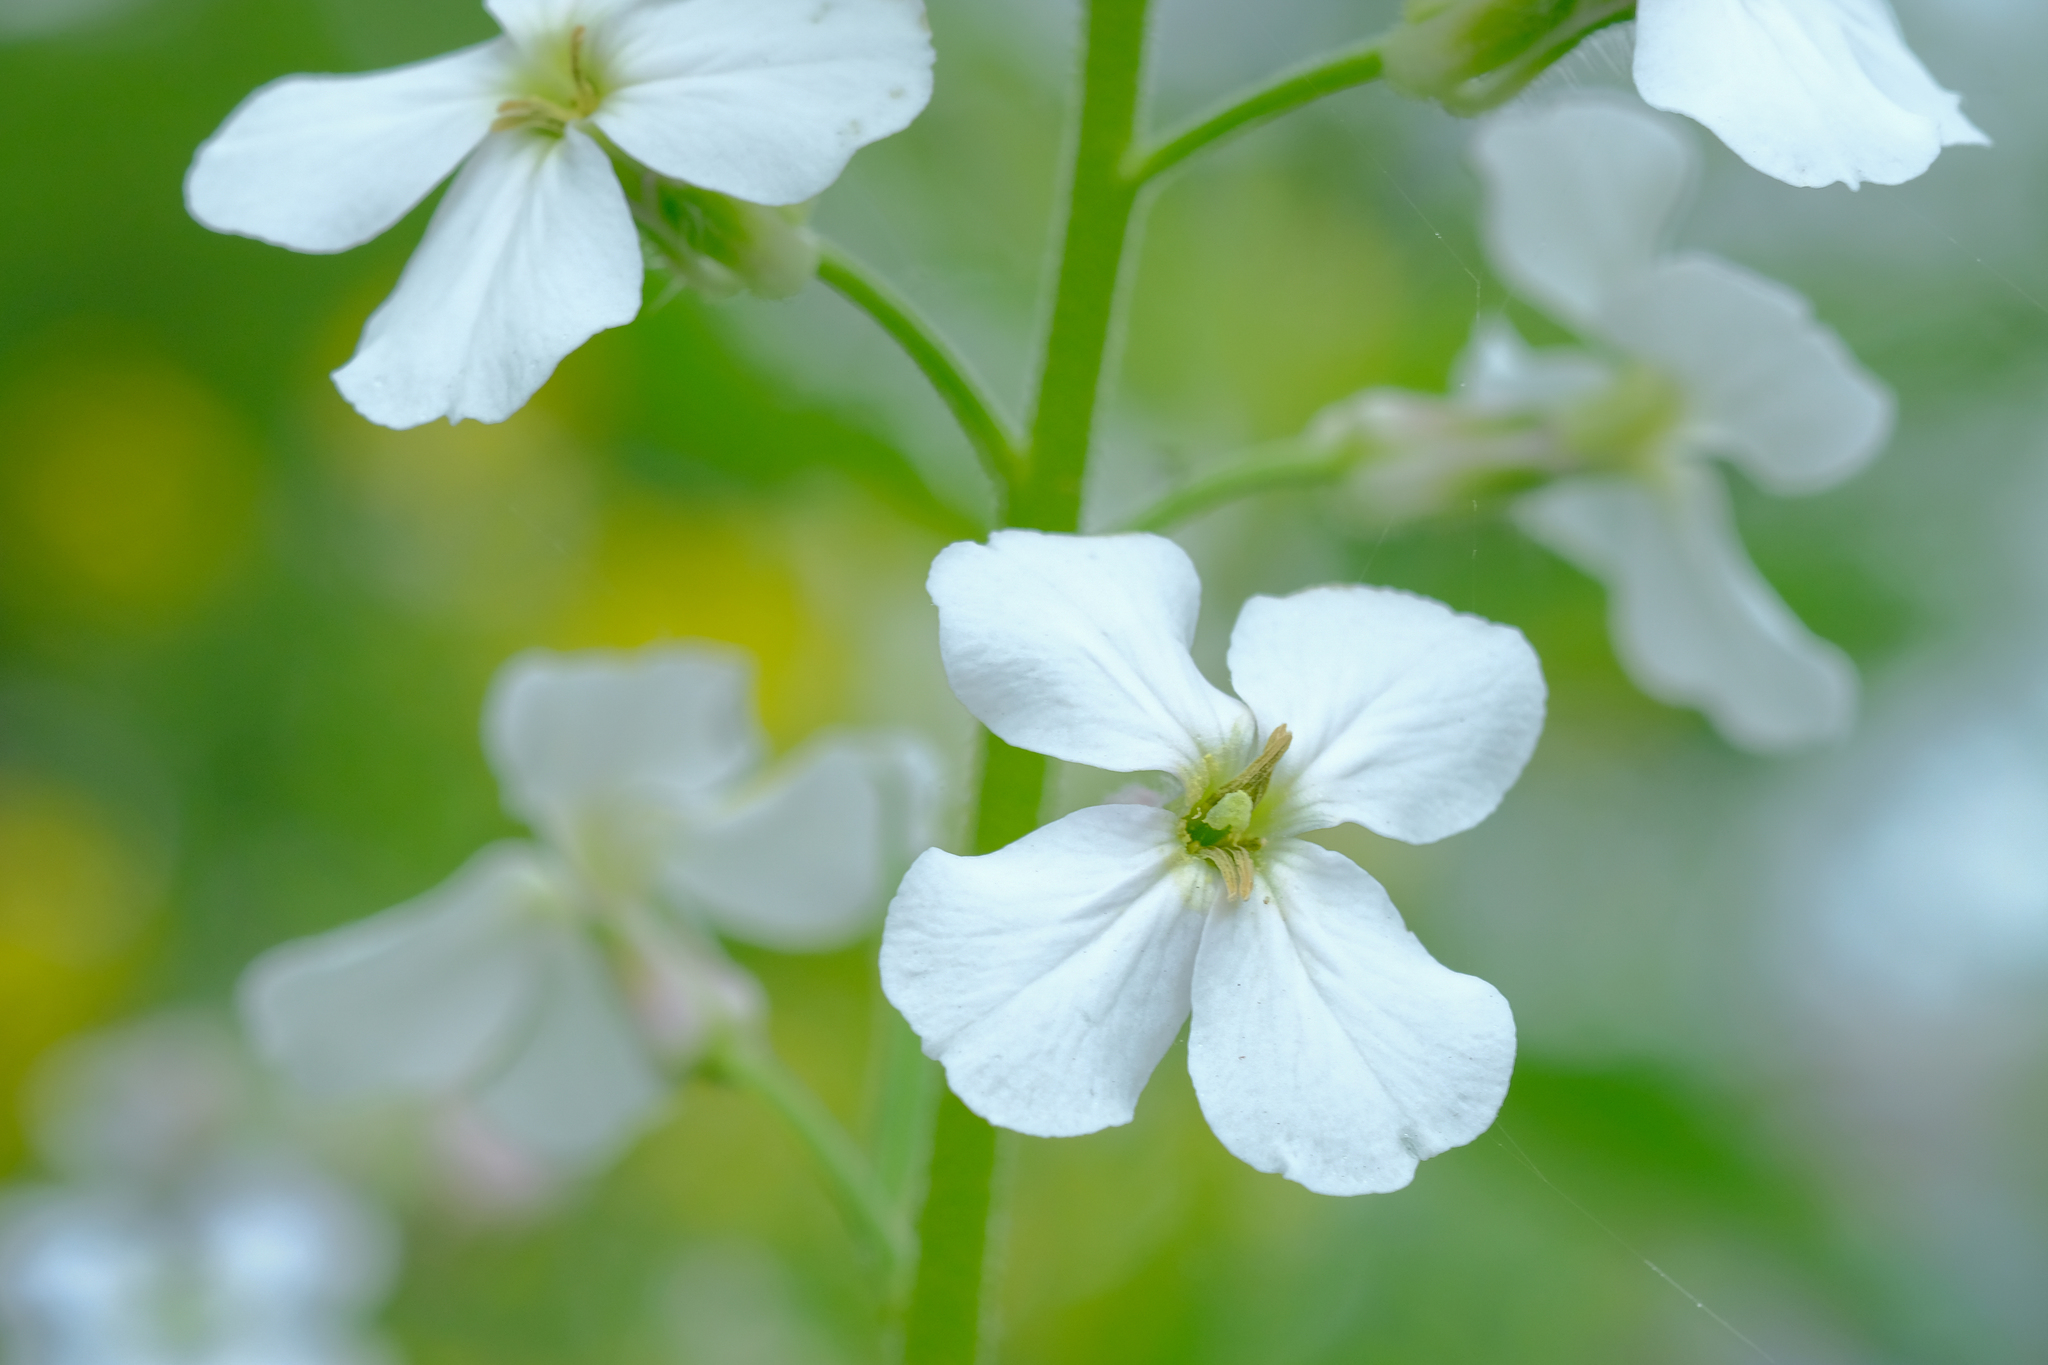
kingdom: Plantae
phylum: Tracheophyta
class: Magnoliopsida
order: Brassicales
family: Brassicaceae
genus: Hesperis
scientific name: Hesperis matronalis
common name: Dame's-violet
